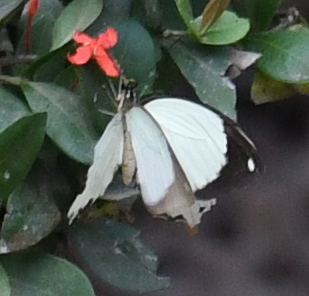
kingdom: Animalia
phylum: Arthropoda
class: Insecta
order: Lepidoptera
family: Papilionidae
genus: Papilio
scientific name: Papilio dardanus
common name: Flying handkerchief
